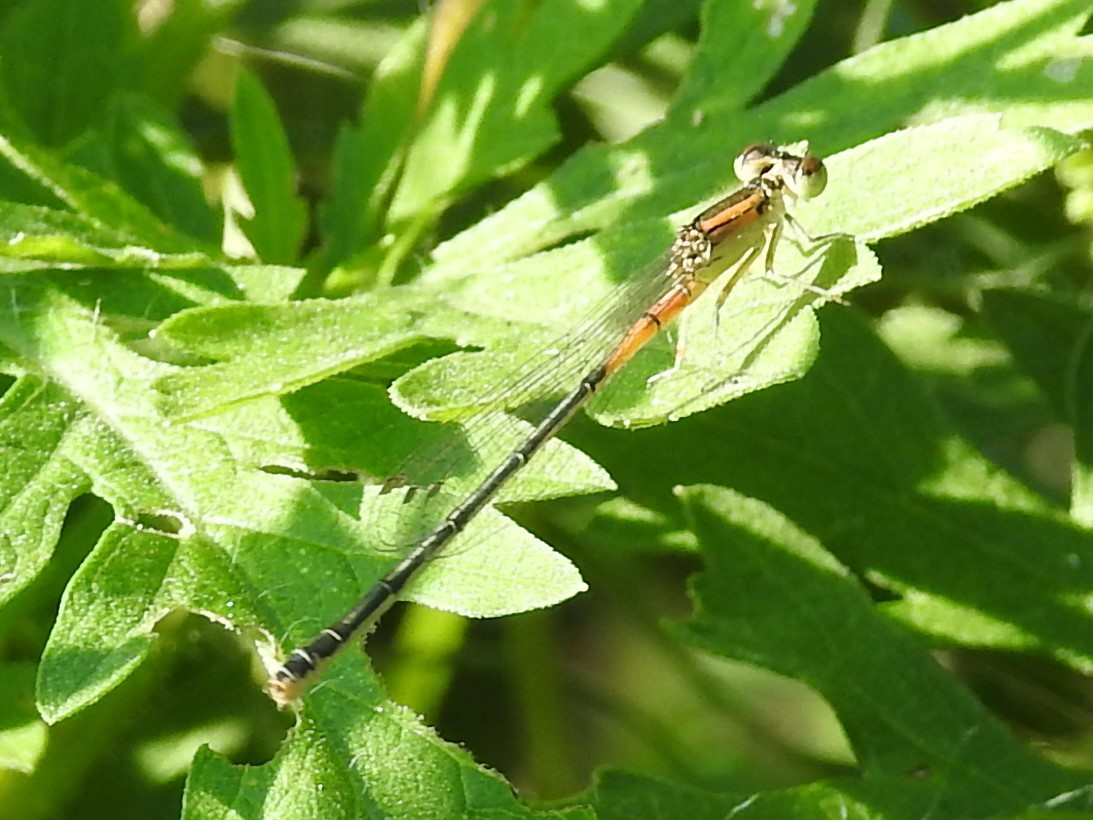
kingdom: Animalia
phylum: Arthropoda
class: Insecta
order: Odonata
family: Coenagrionidae
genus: Ischnura
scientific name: Ischnura verticalis
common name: Eastern forktail
